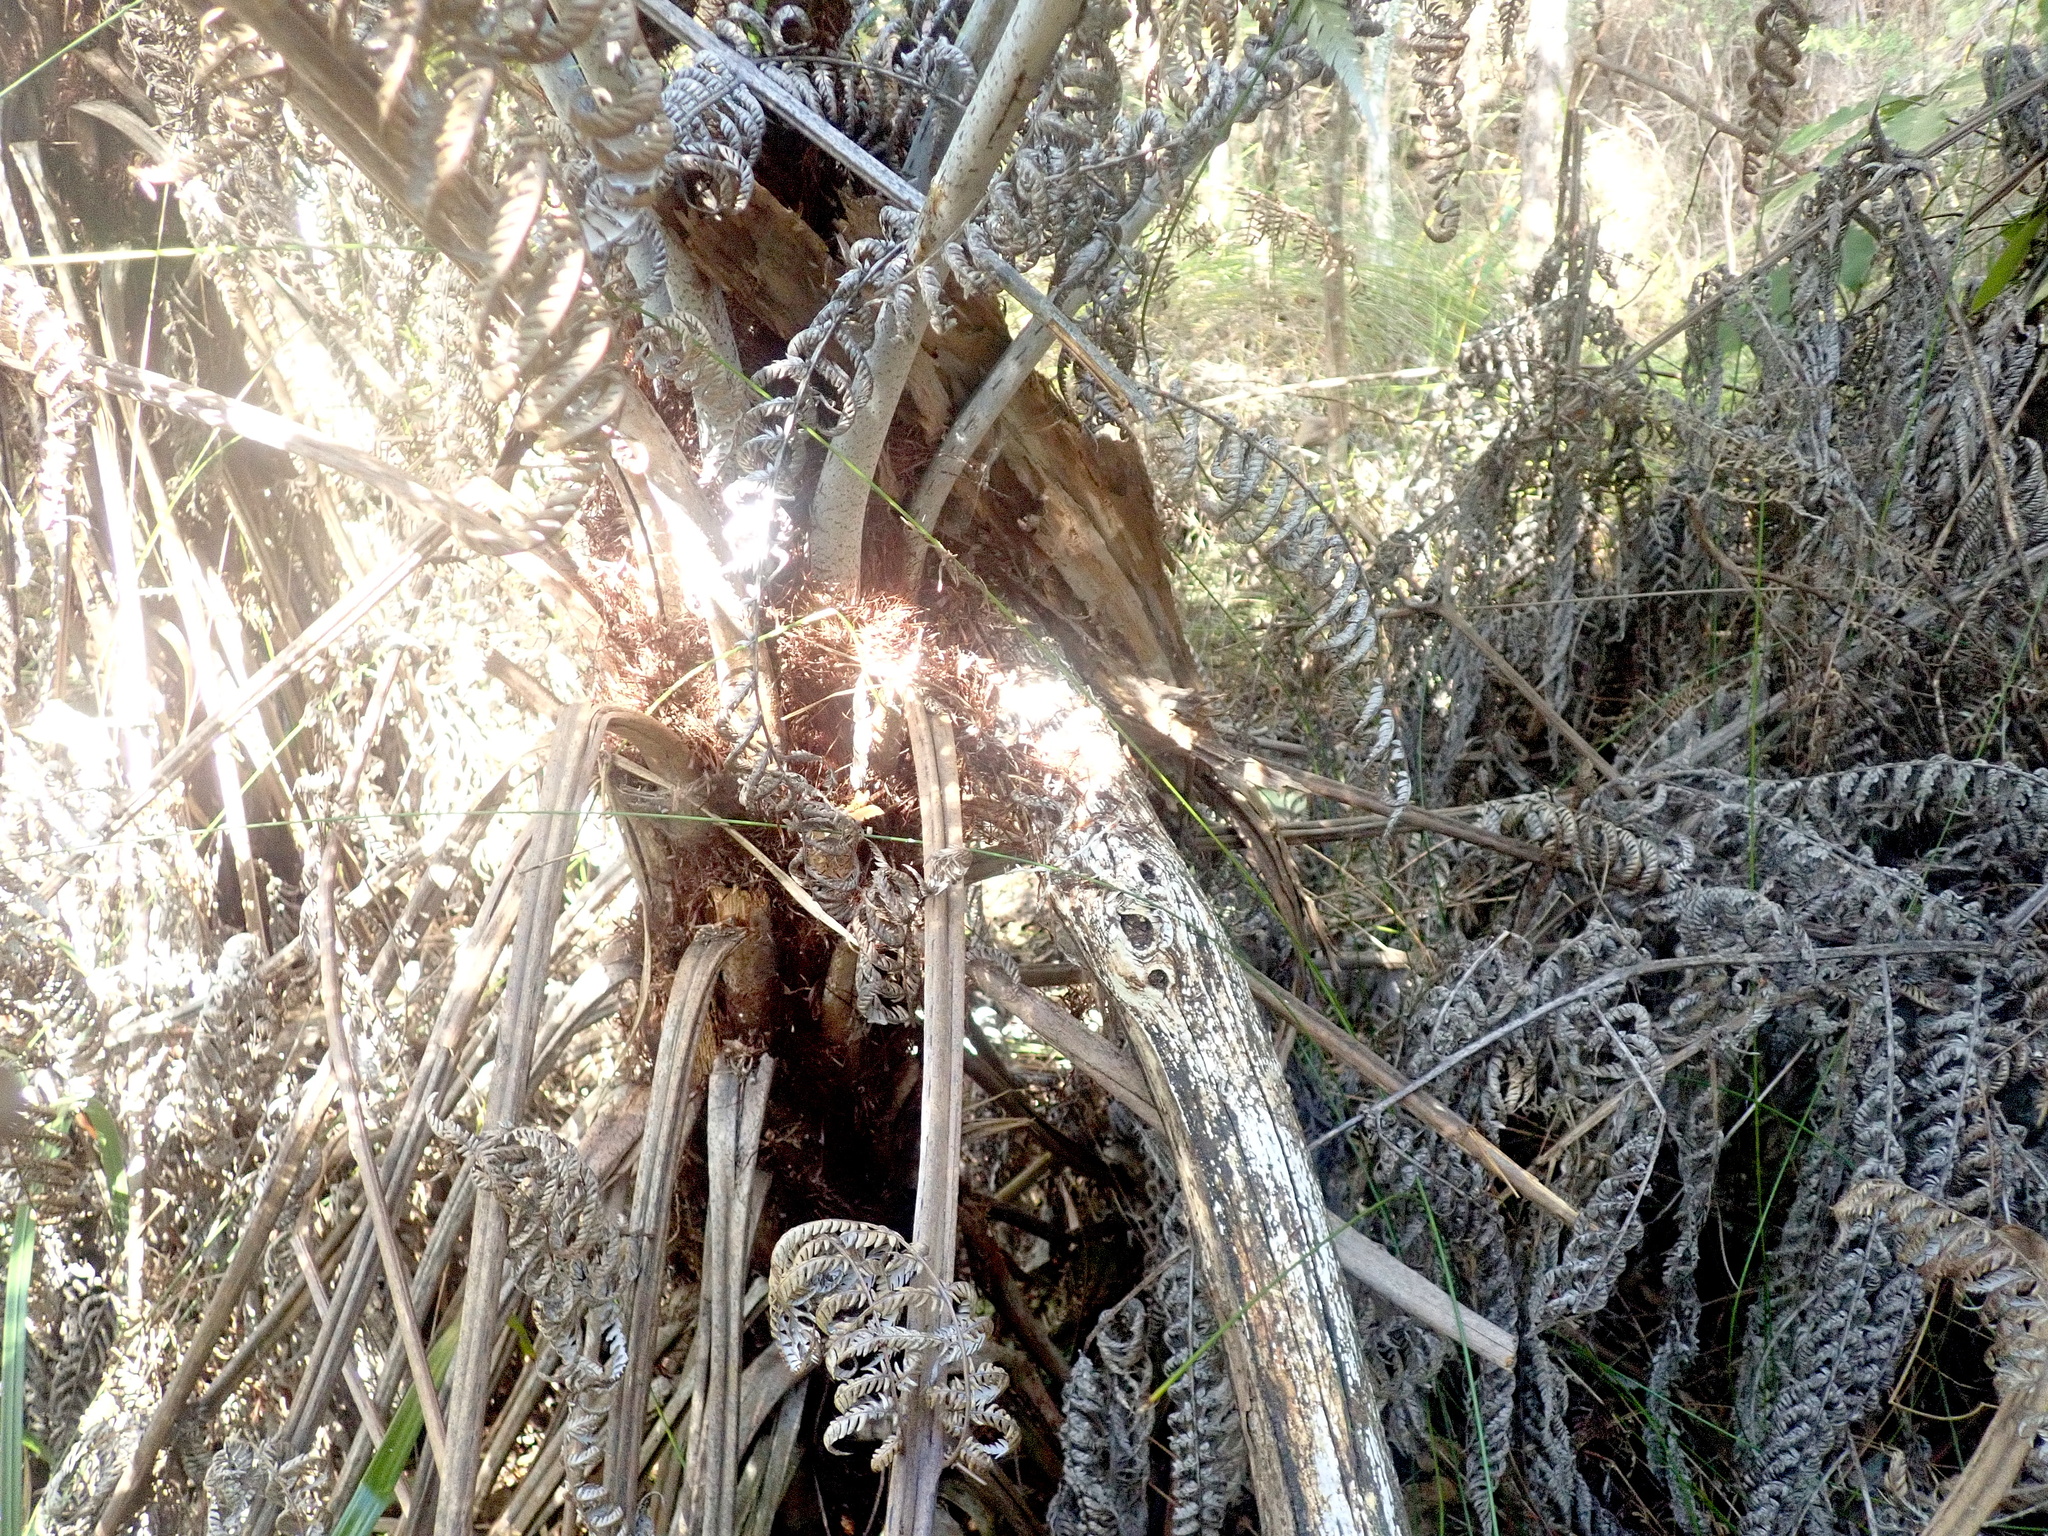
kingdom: Plantae
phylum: Tracheophyta
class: Polypodiopsida
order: Cyatheales
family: Cyatheaceae
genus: Alsophila
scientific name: Alsophila dealbata
